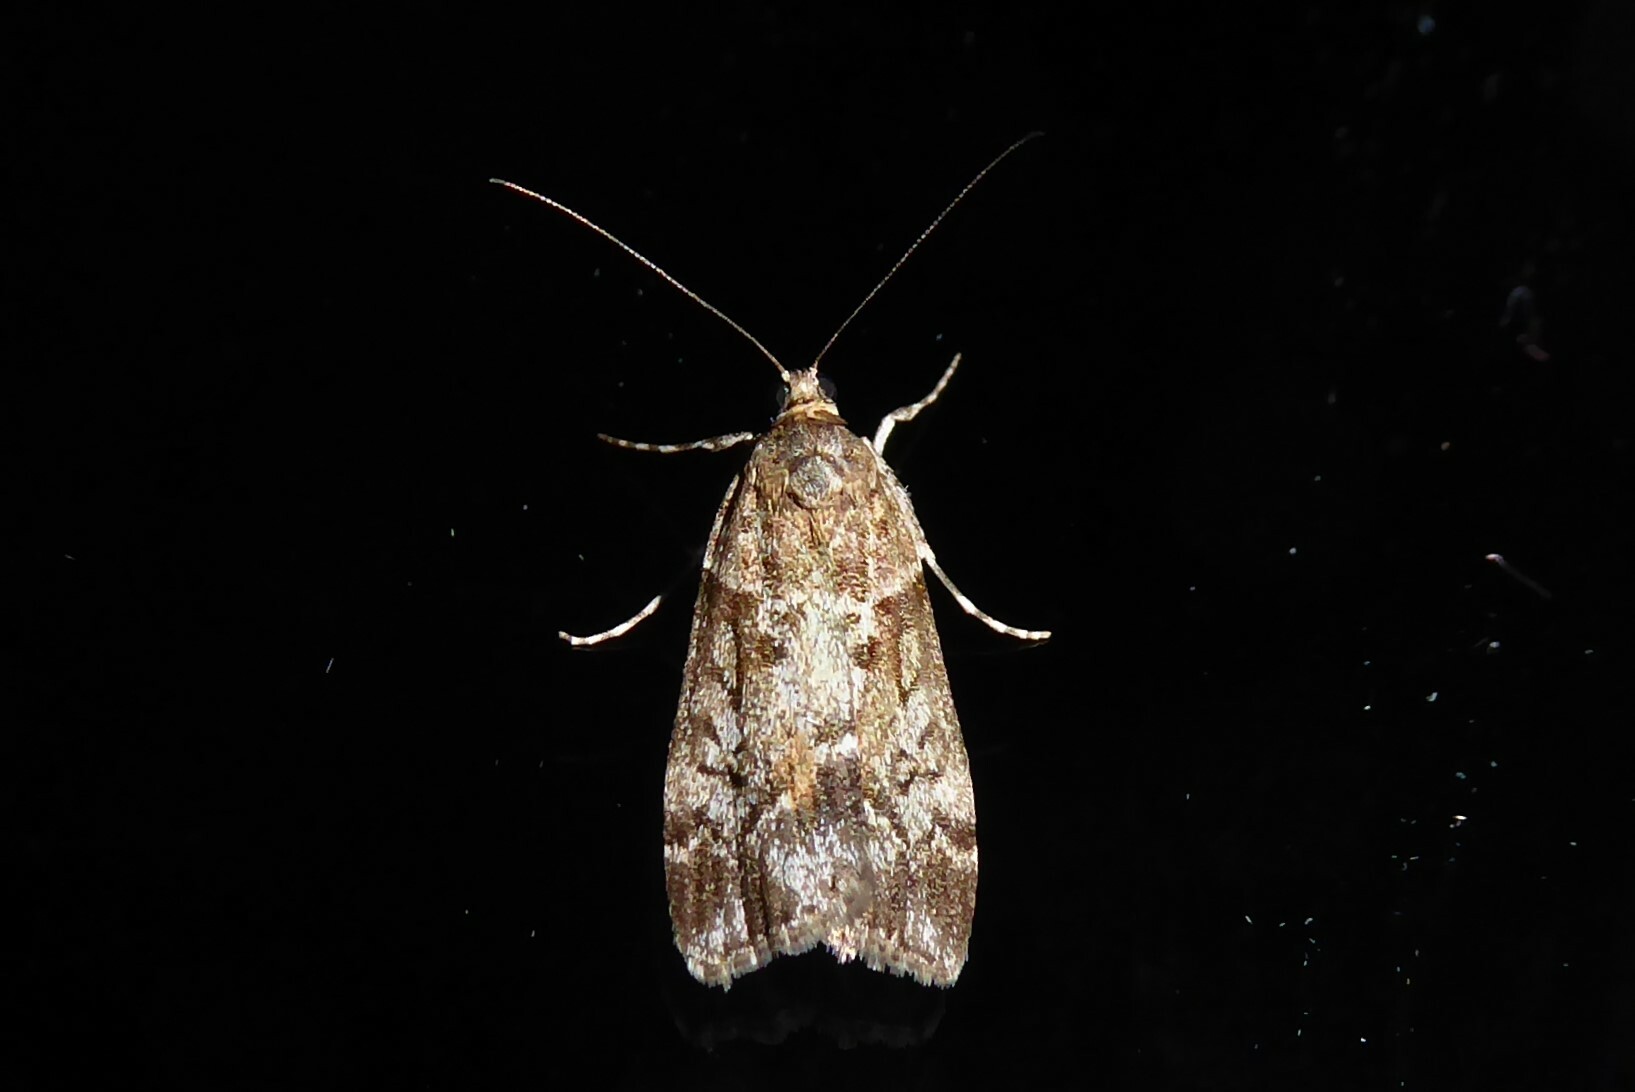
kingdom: Animalia
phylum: Arthropoda
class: Insecta
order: Lepidoptera
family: Crambidae
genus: Eudonia
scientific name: Eudonia submarginalis
